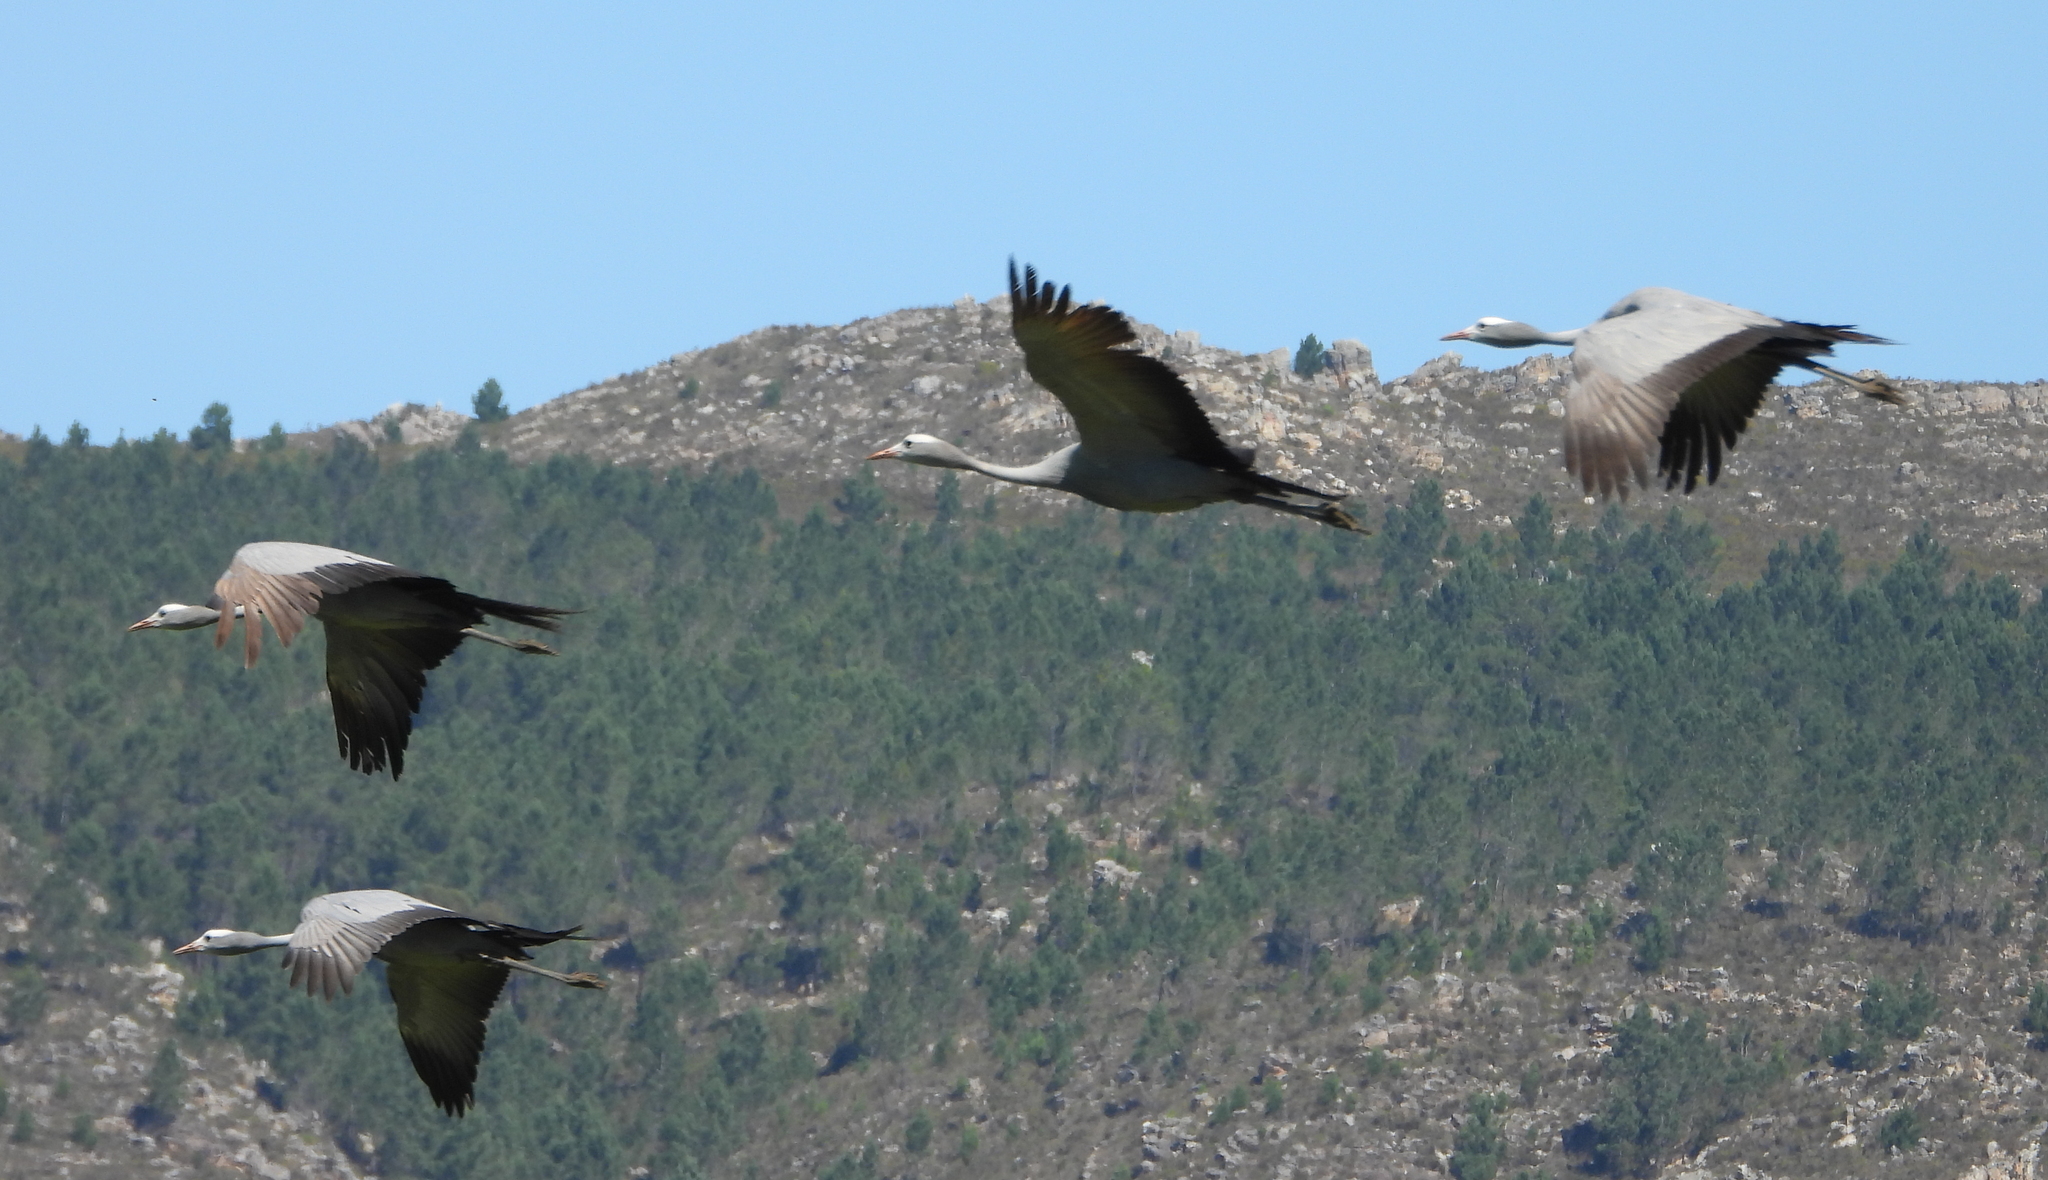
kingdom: Animalia
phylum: Chordata
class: Aves
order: Gruiformes
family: Gruidae
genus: Anthropoides
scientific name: Anthropoides paradiseus
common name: Blue crane
